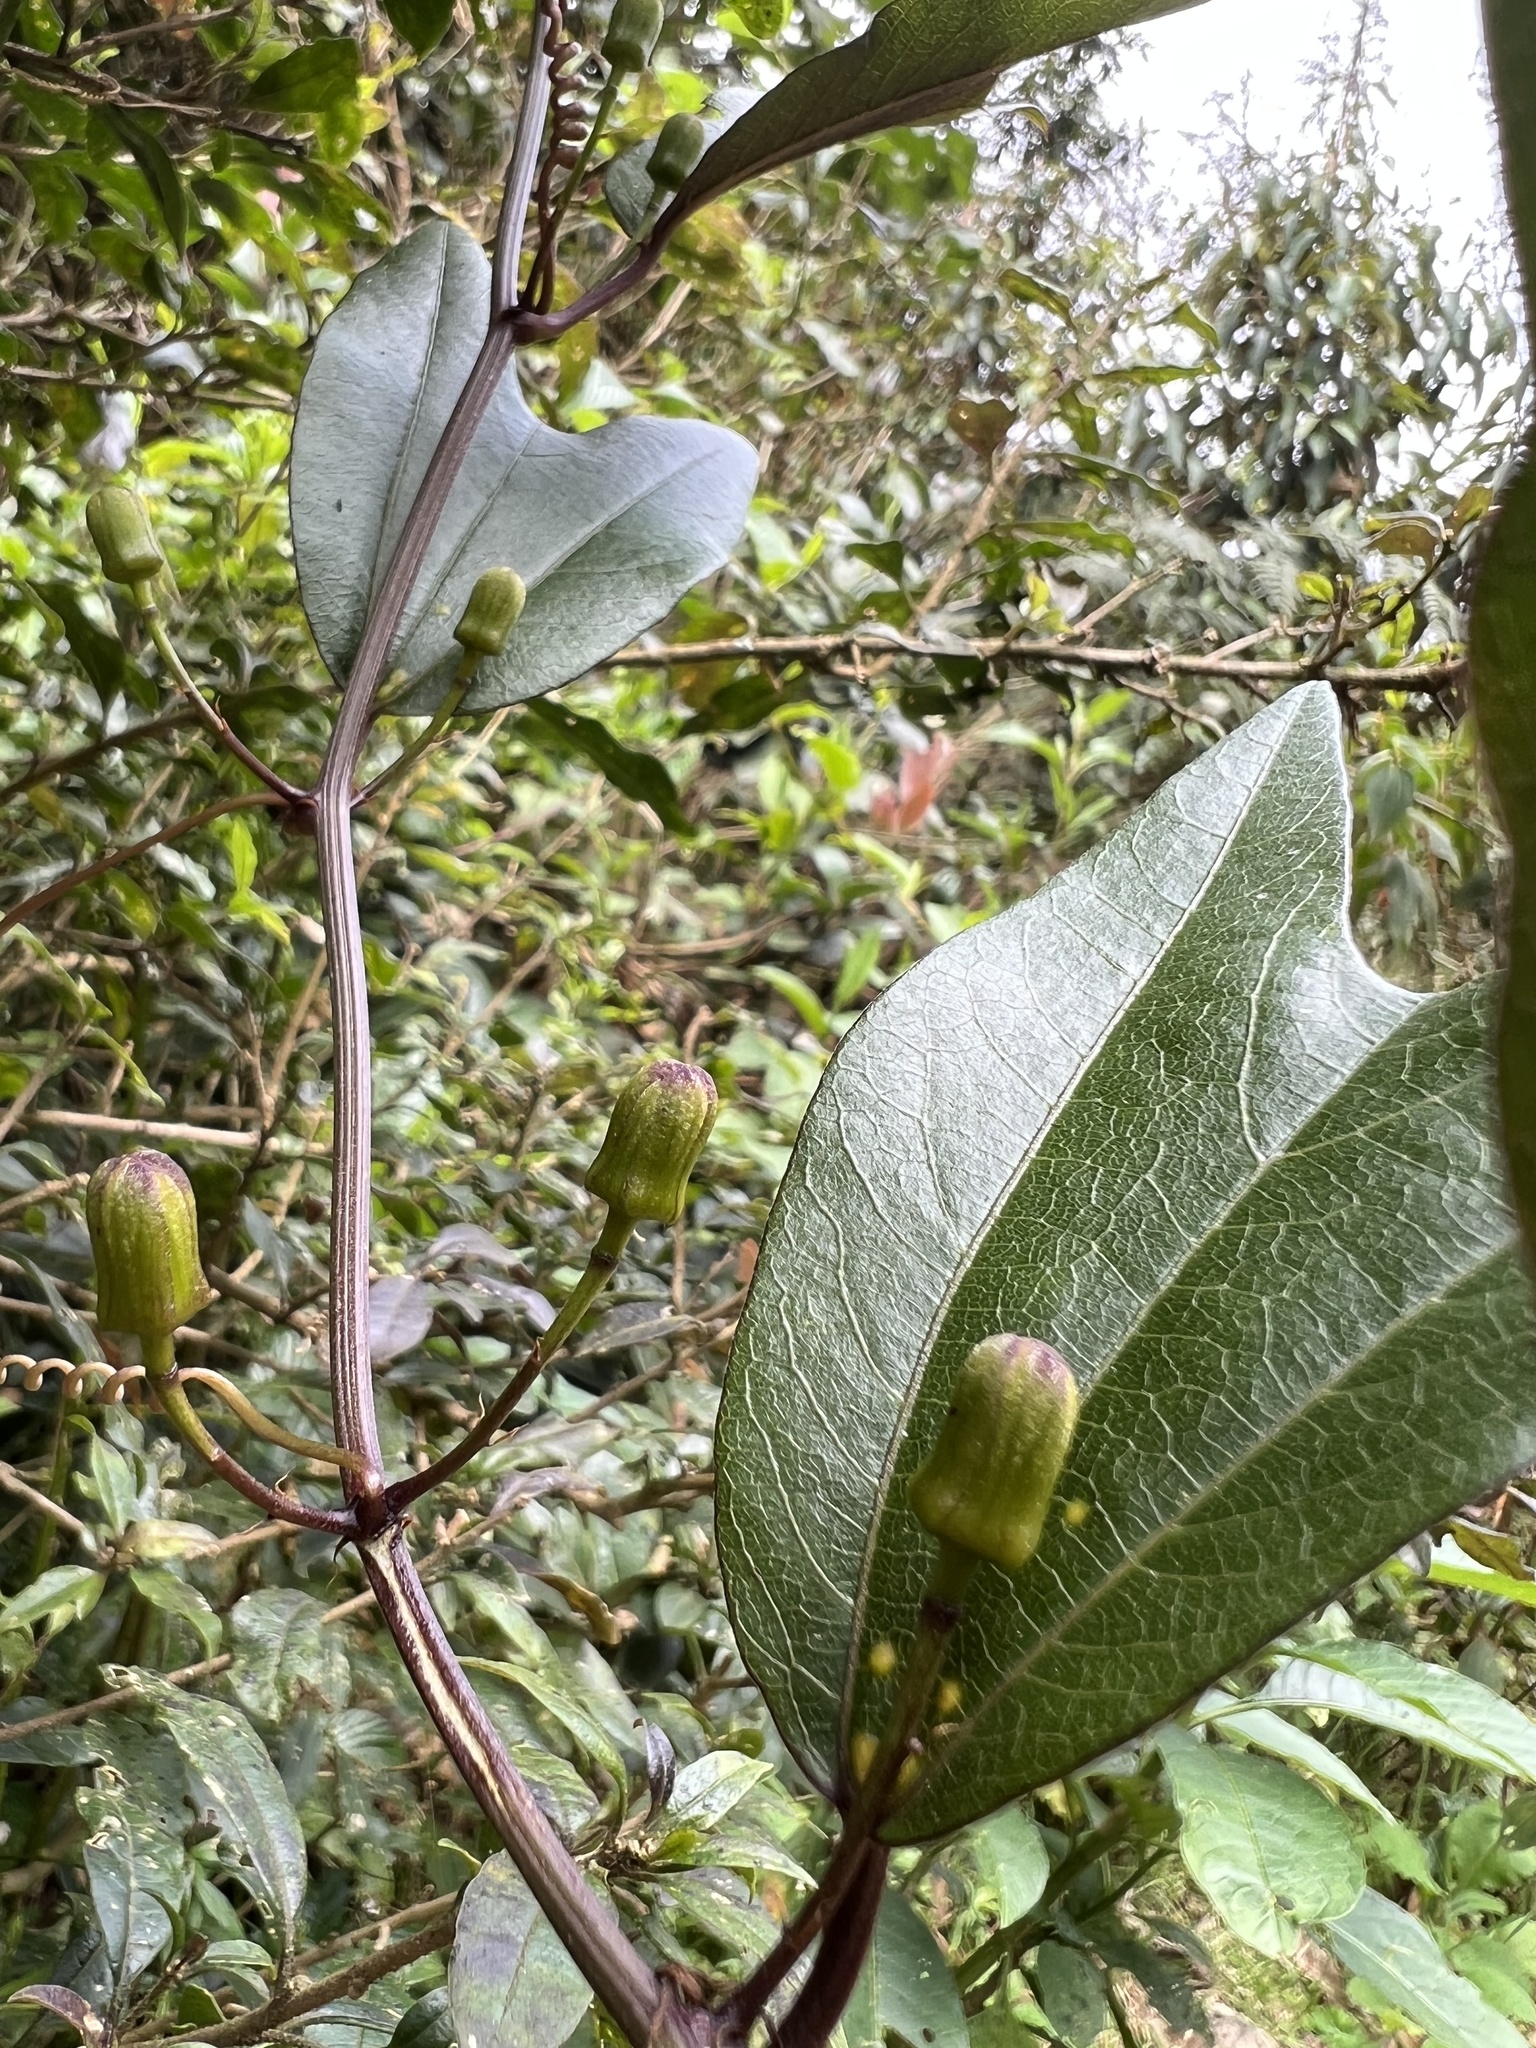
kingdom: Plantae
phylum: Tracheophyta
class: Magnoliopsida
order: Malpighiales
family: Passifloraceae
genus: Passiflora
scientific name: Passiflora chelidonea
